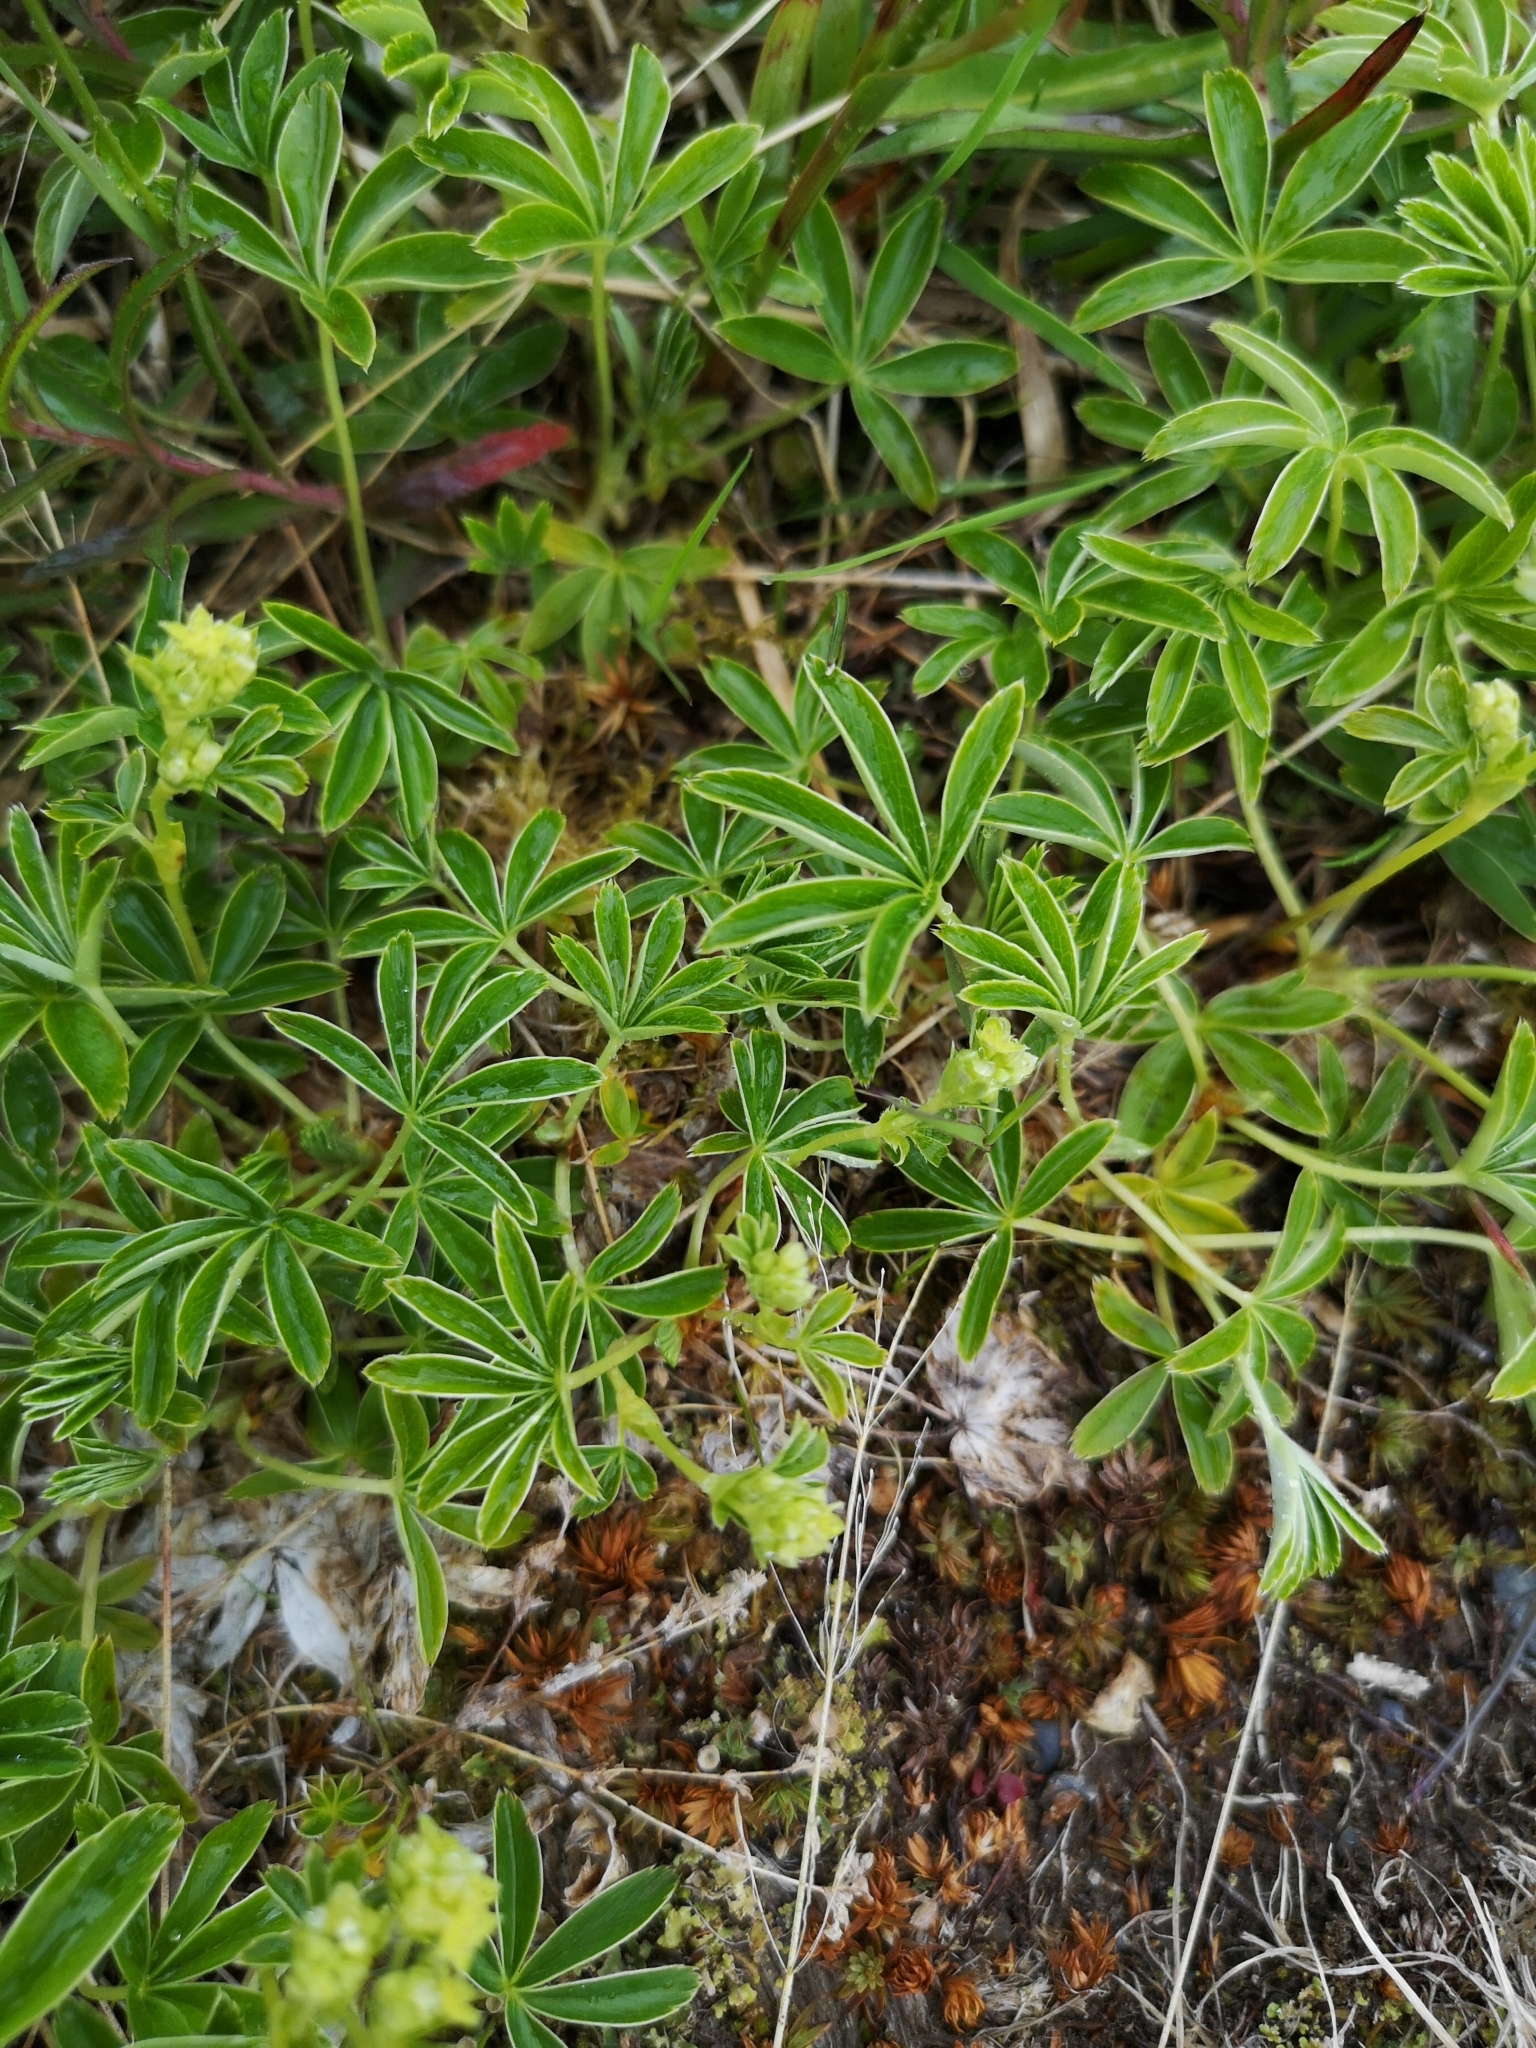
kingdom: Plantae
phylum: Tracheophyta
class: Magnoliopsida
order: Rosales
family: Rosaceae
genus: Alchemilla
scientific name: Alchemilla alpina
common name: Alpine lady's-mantle
